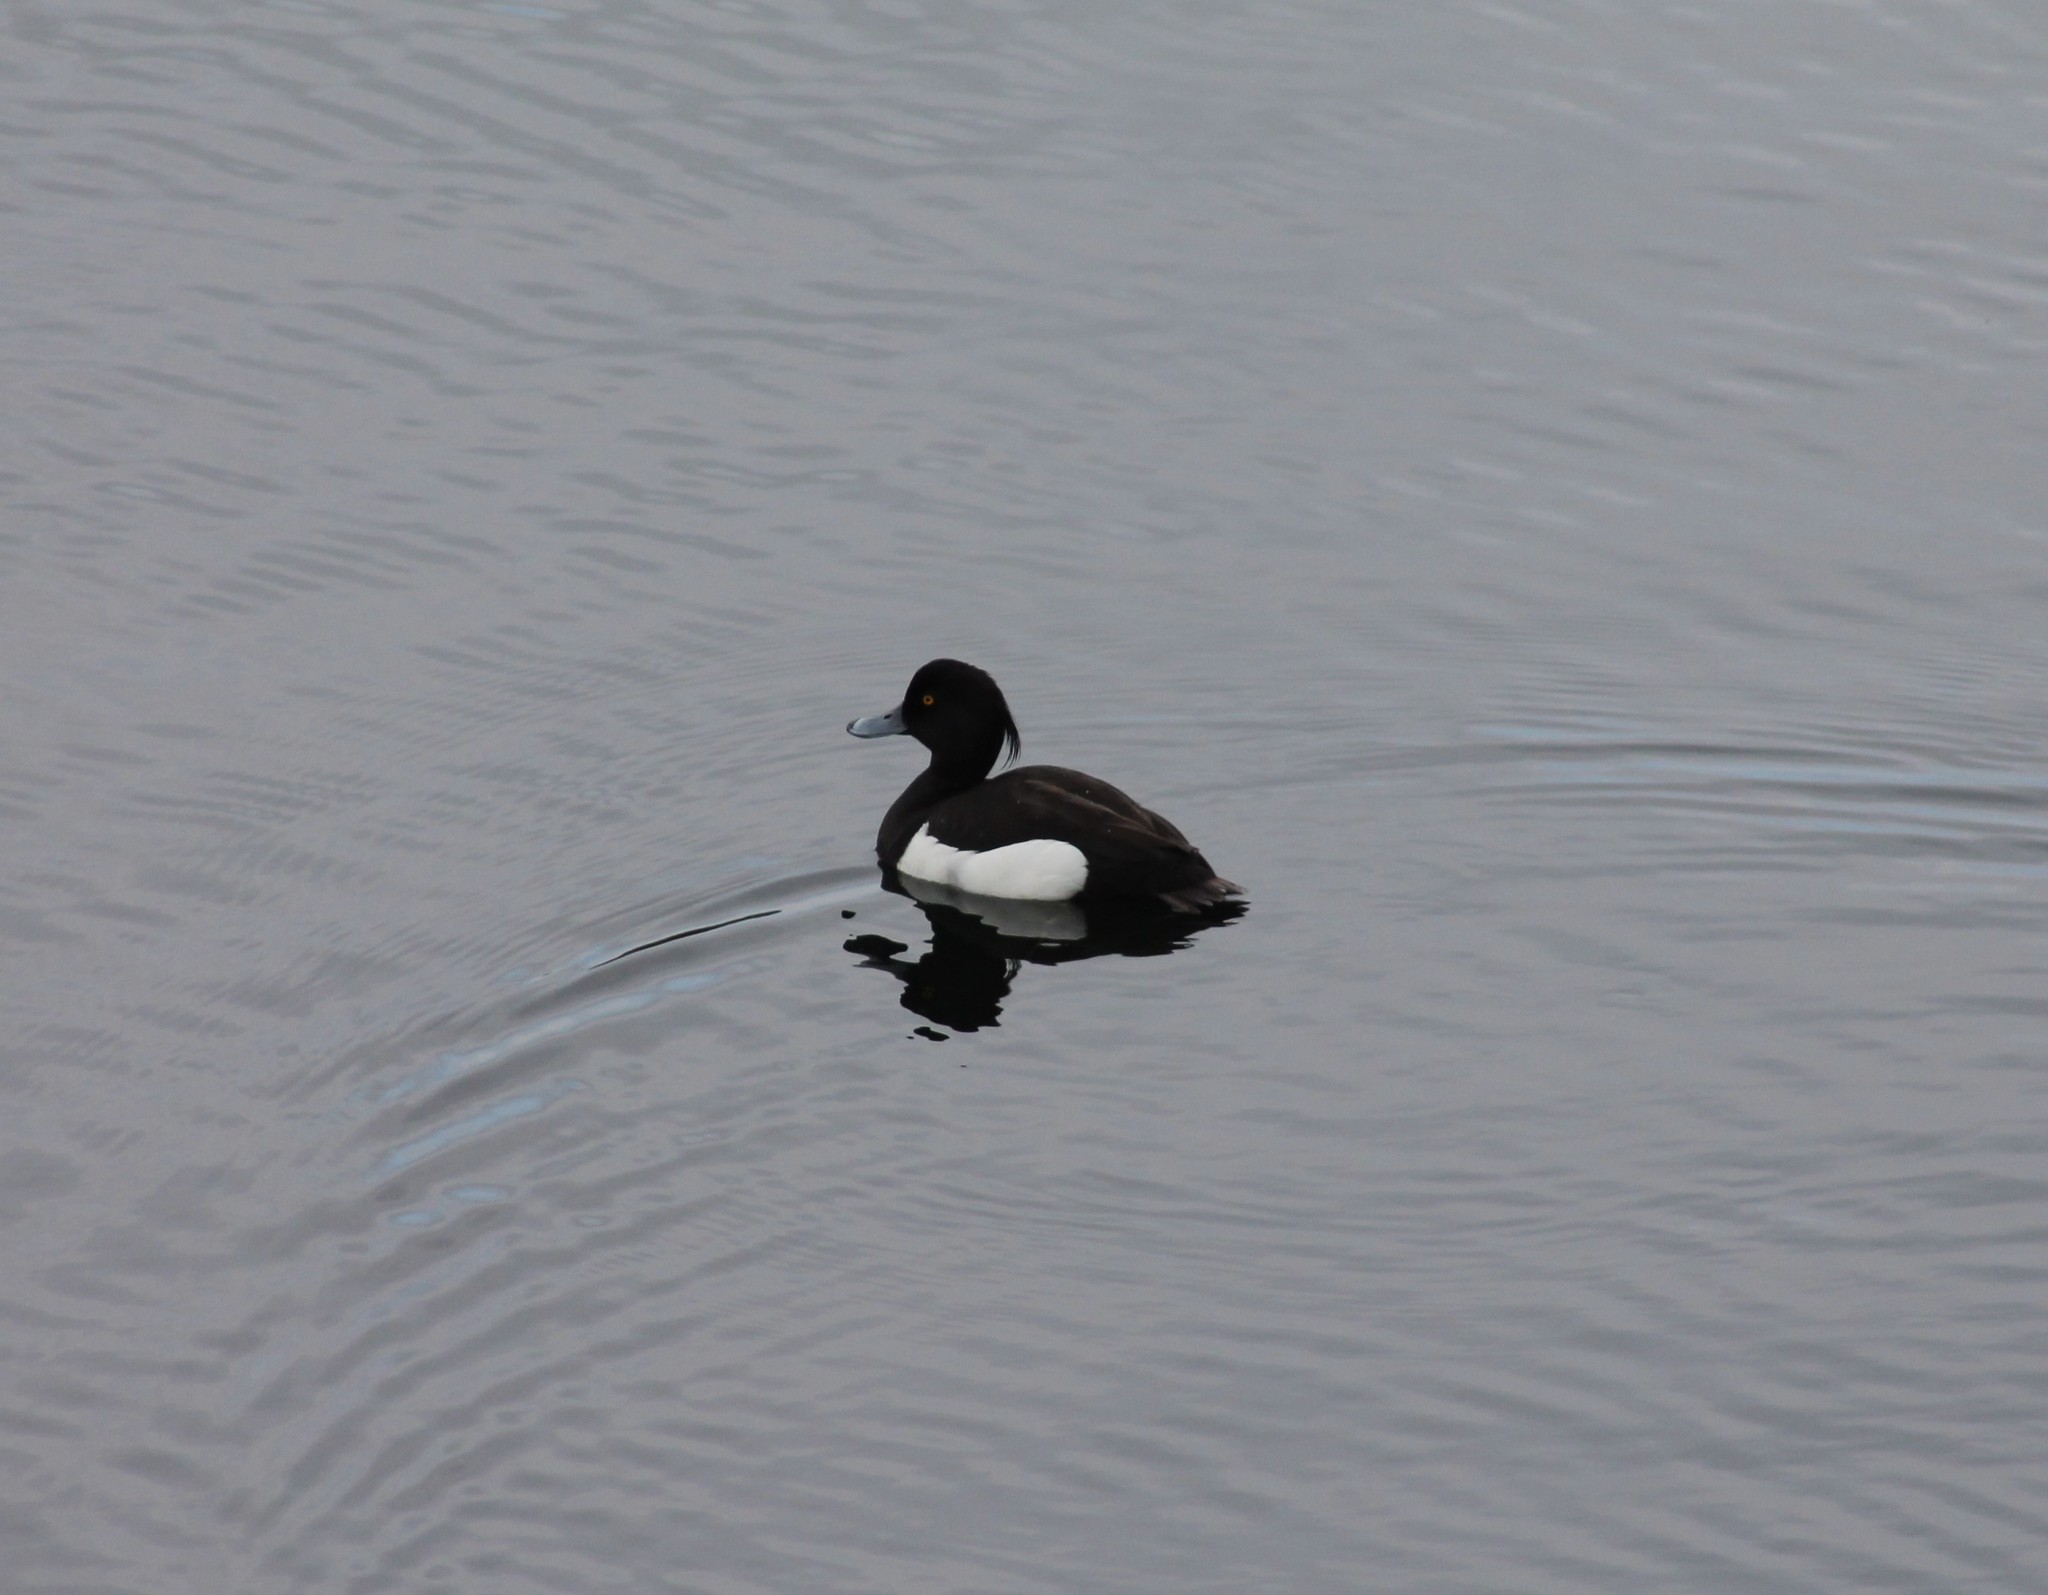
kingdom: Animalia
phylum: Chordata
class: Aves
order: Anseriformes
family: Anatidae
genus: Aythya
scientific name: Aythya fuligula
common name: Tufted duck
